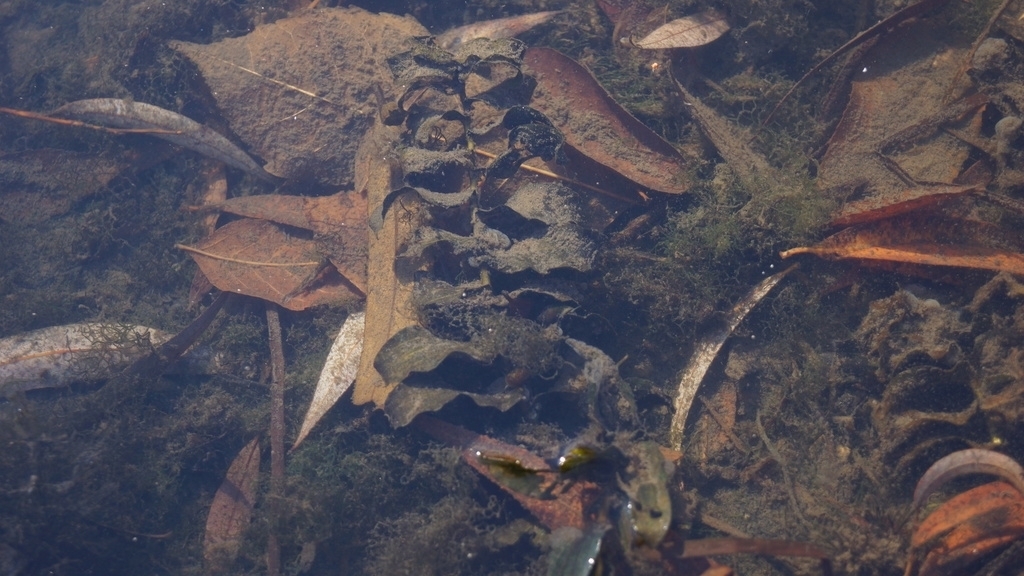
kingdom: Plantae
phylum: Chlorophyta
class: Chlorophyceae
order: Sphaeropleales
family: Hydrodictyaceae
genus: Hydrodictyon
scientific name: Hydrodictyon
